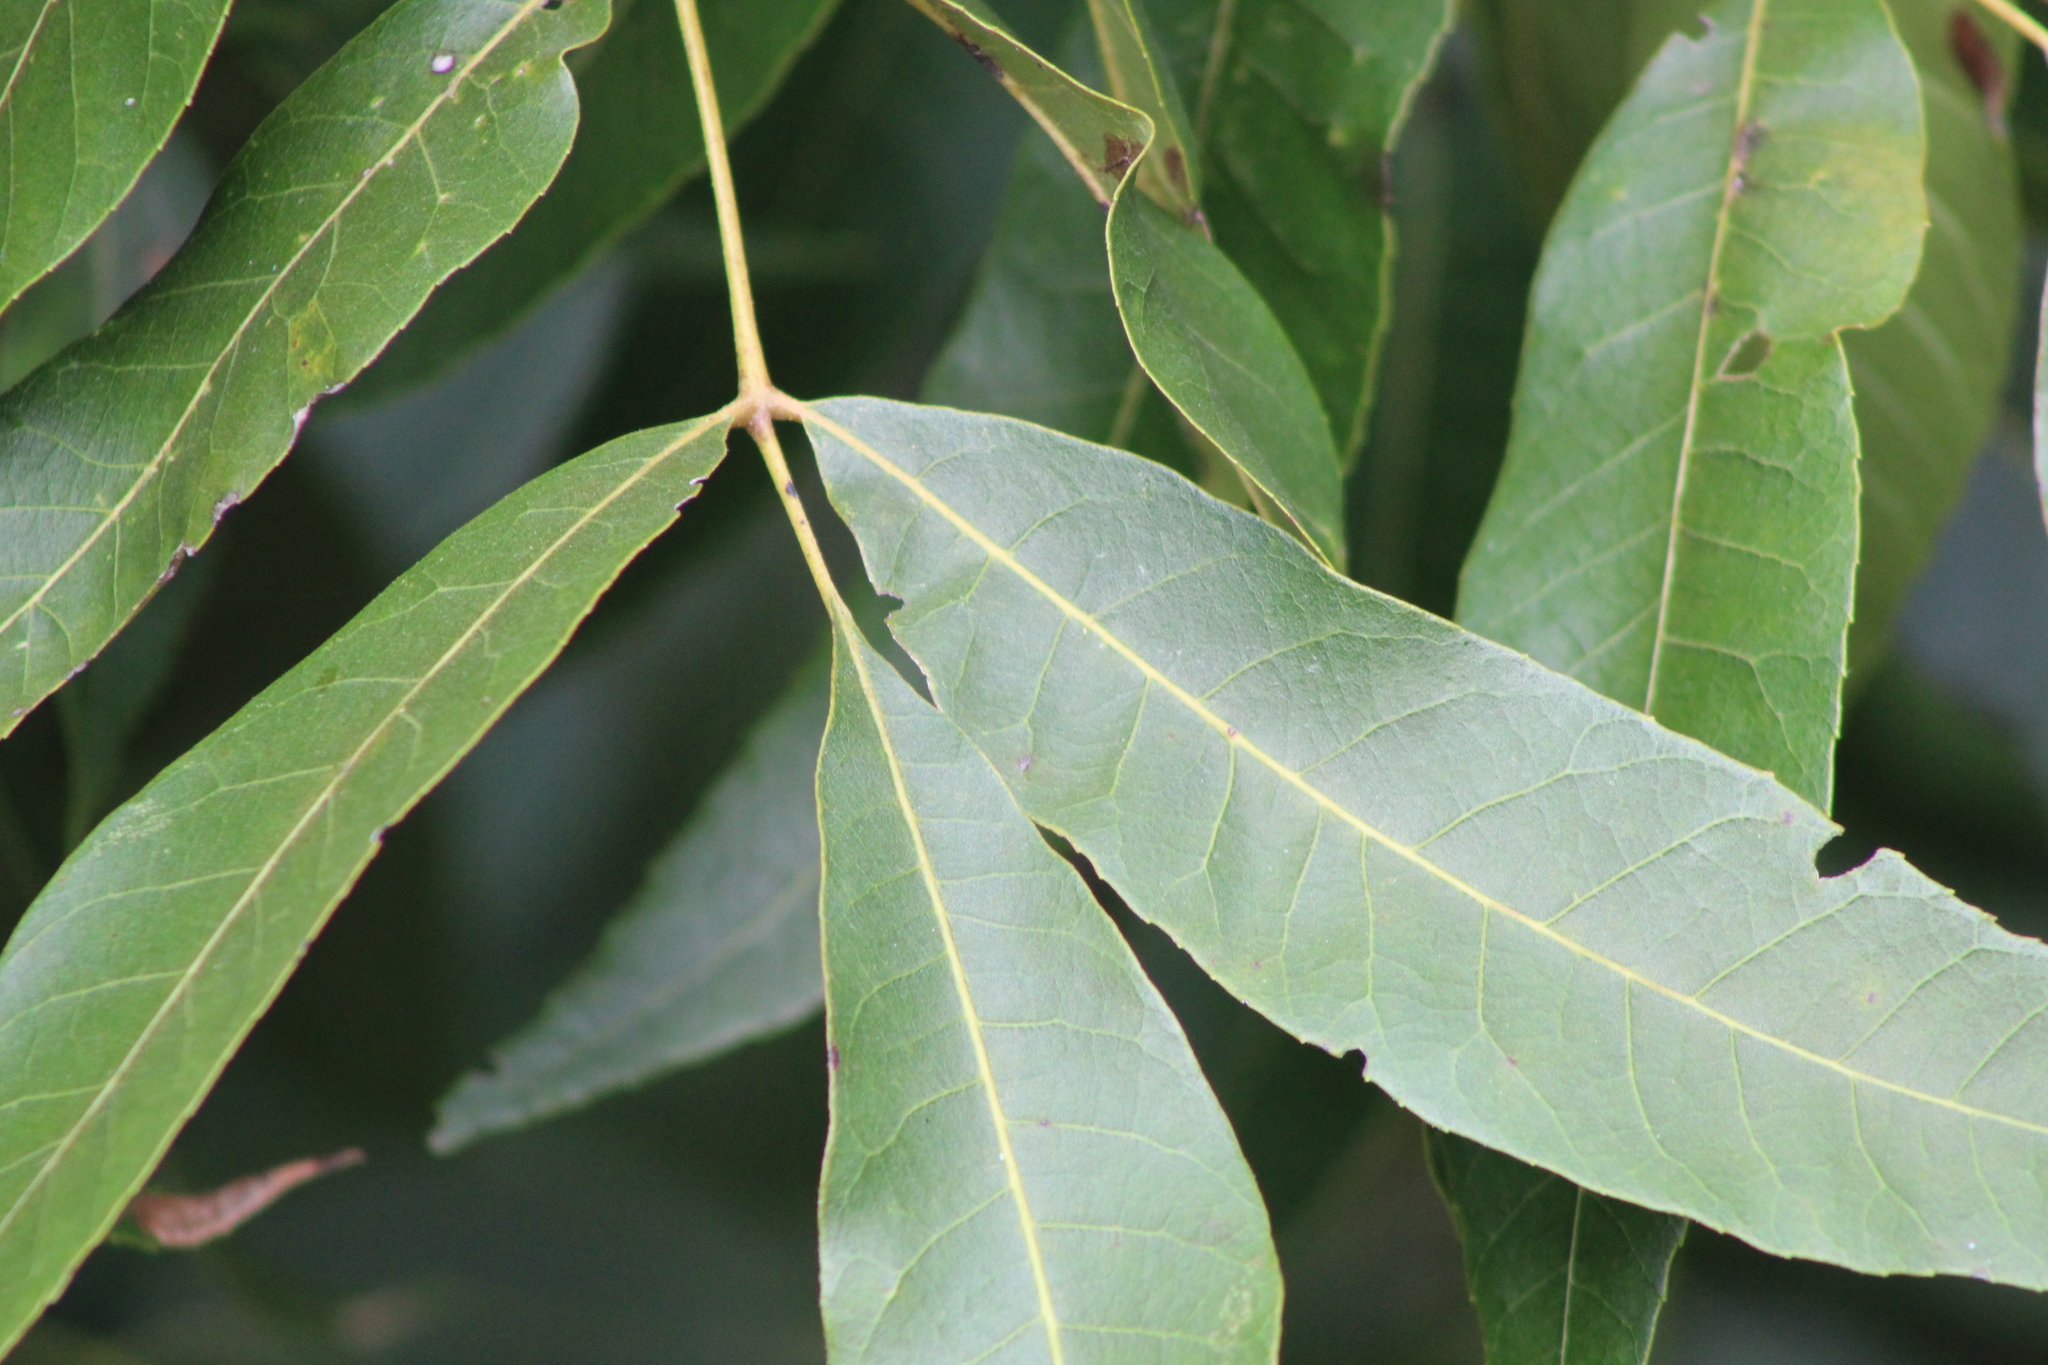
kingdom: Plantae
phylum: Tracheophyta
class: Magnoliopsida
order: Fagales
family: Juglandaceae
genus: Carya
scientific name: Carya illinoinensis
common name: Pecan
